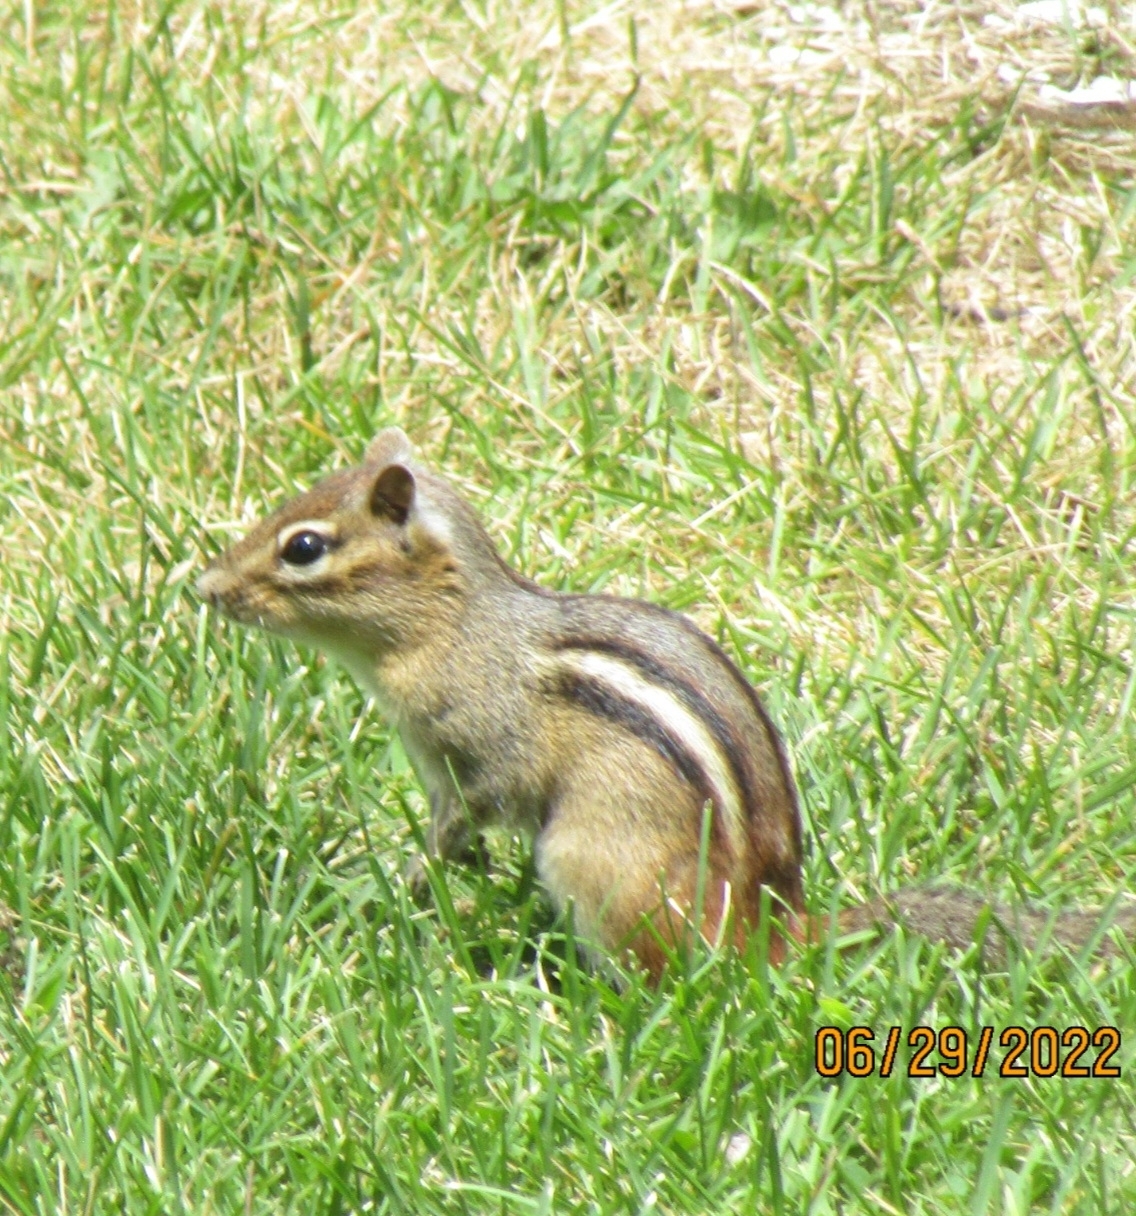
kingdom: Animalia
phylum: Chordata
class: Mammalia
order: Rodentia
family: Sciuridae
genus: Tamias
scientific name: Tamias striatus
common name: Eastern chipmunk
